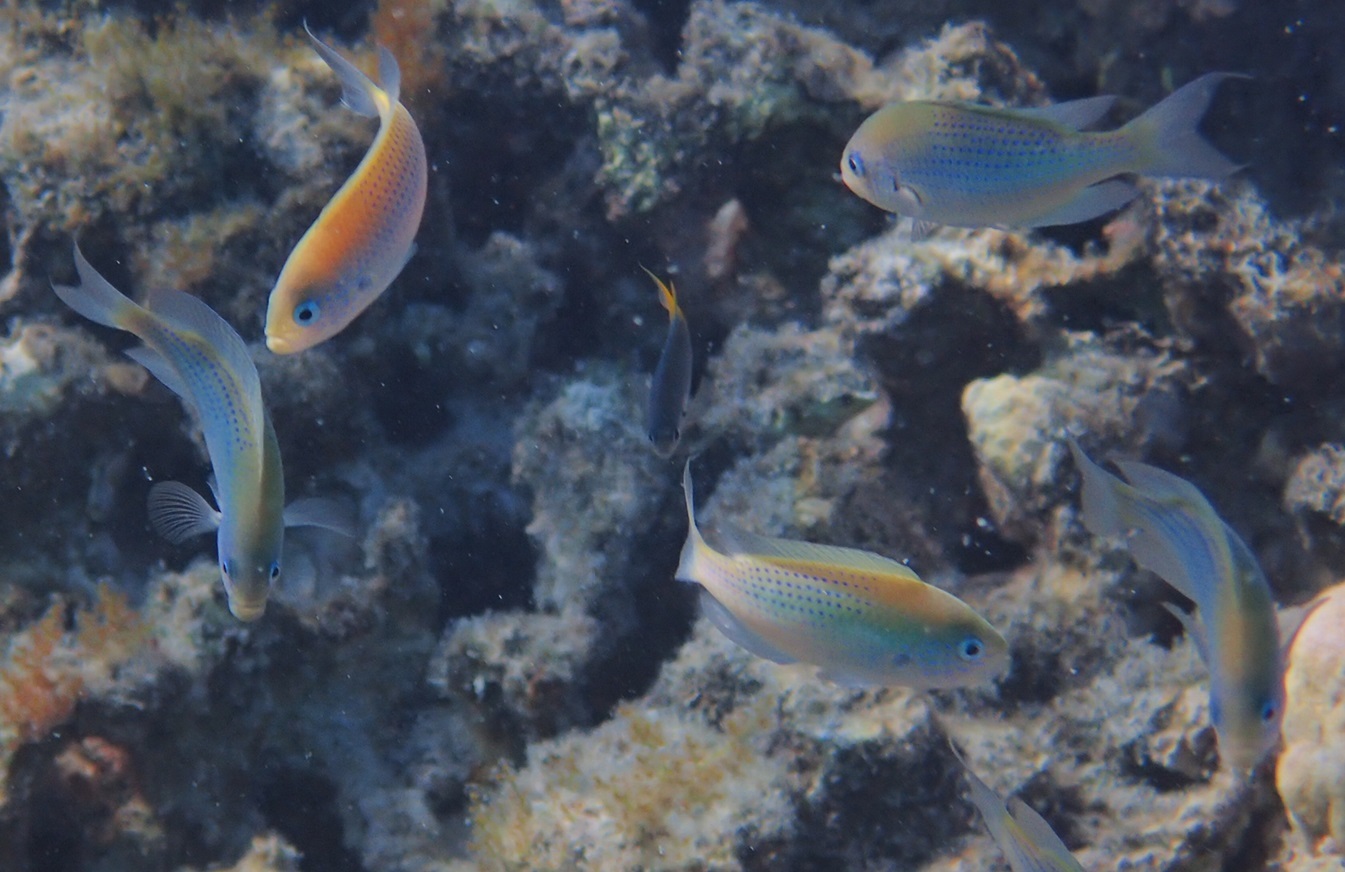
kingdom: Animalia
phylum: Chordata
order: Perciformes
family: Pomacentridae
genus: Pristotis
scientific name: Pristotis cyanostigma
